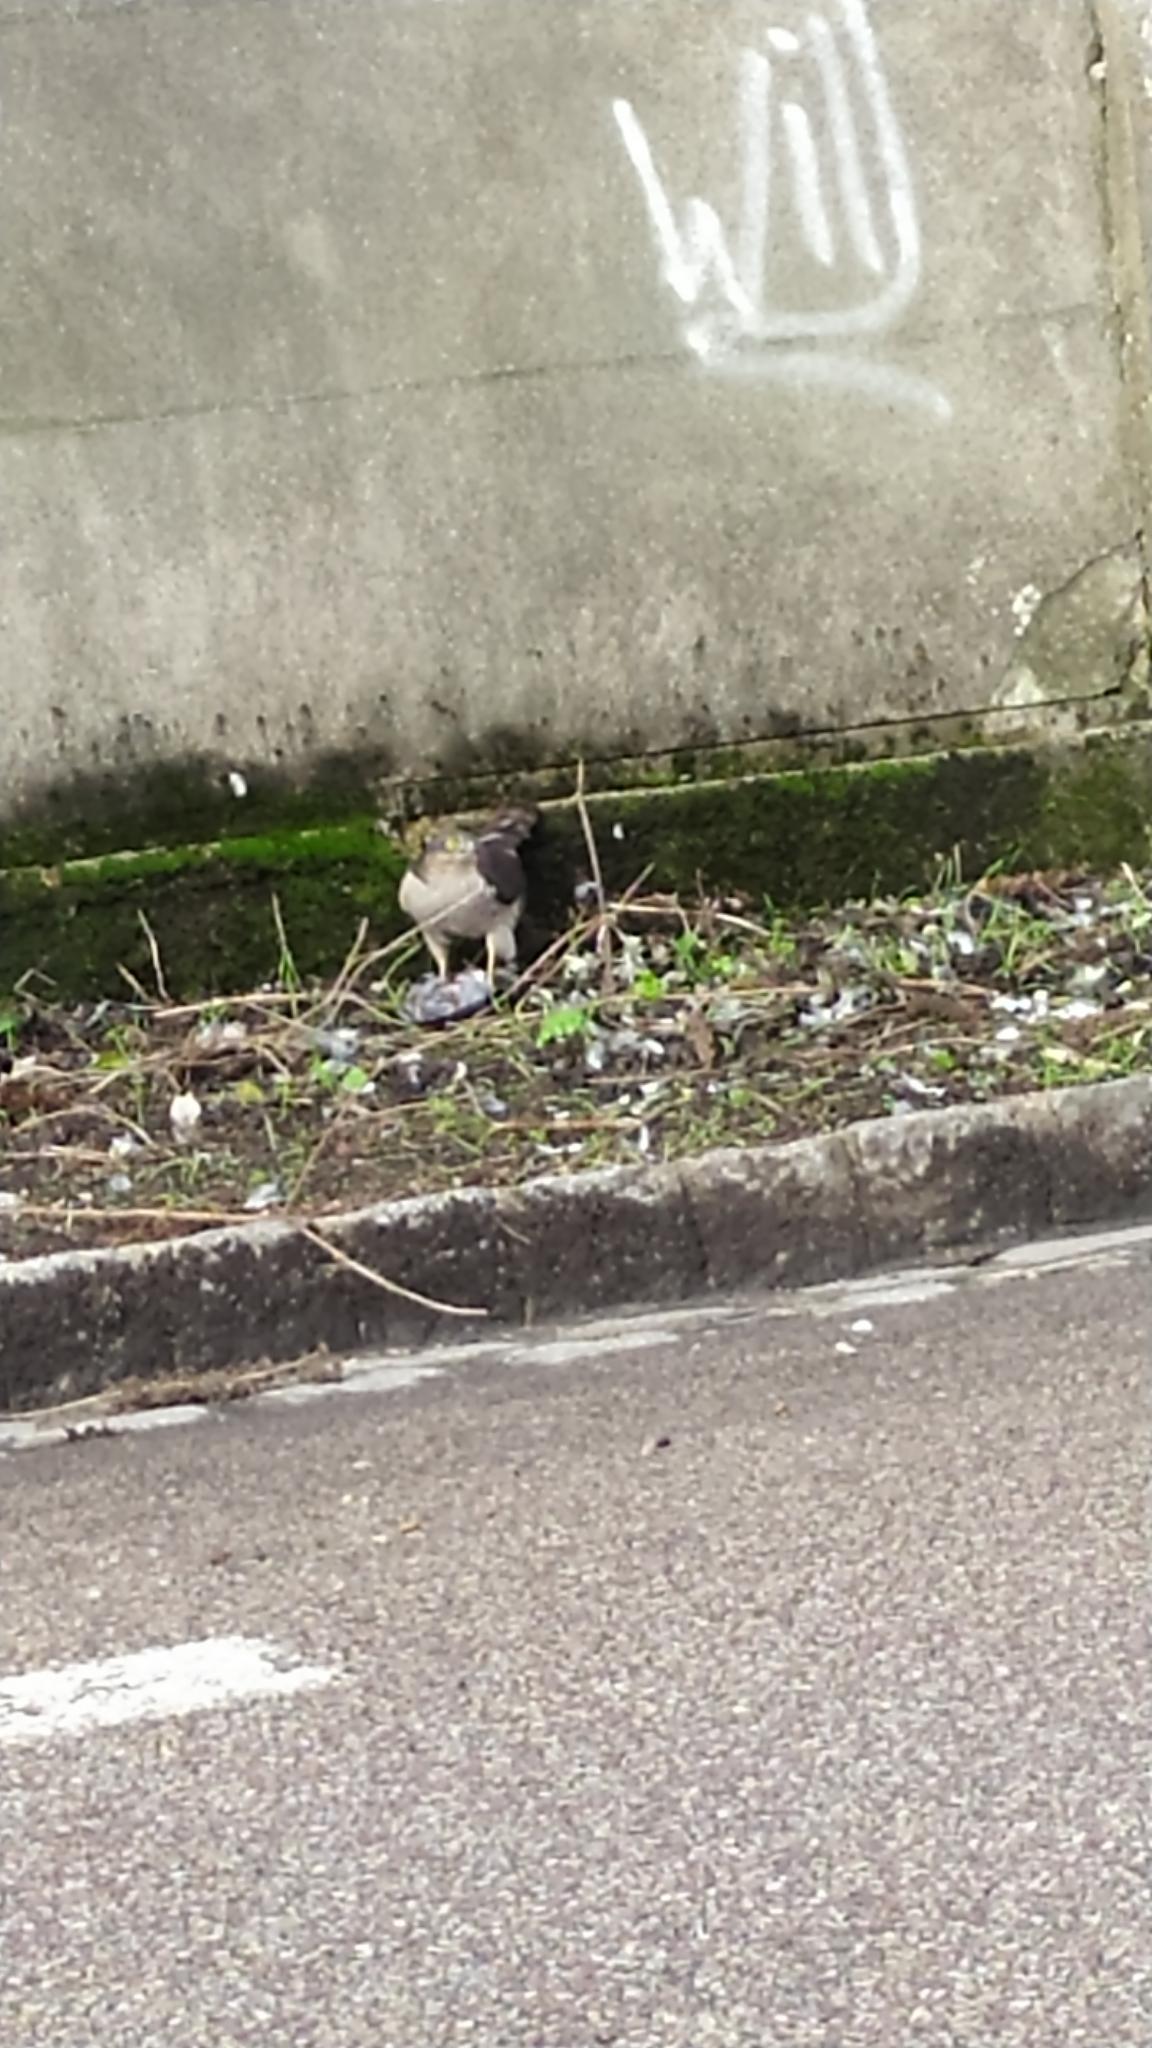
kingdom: Animalia
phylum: Chordata
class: Aves
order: Accipitriformes
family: Accipitridae
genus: Accipiter
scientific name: Accipiter nisus
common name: Eurasian sparrowhawk
